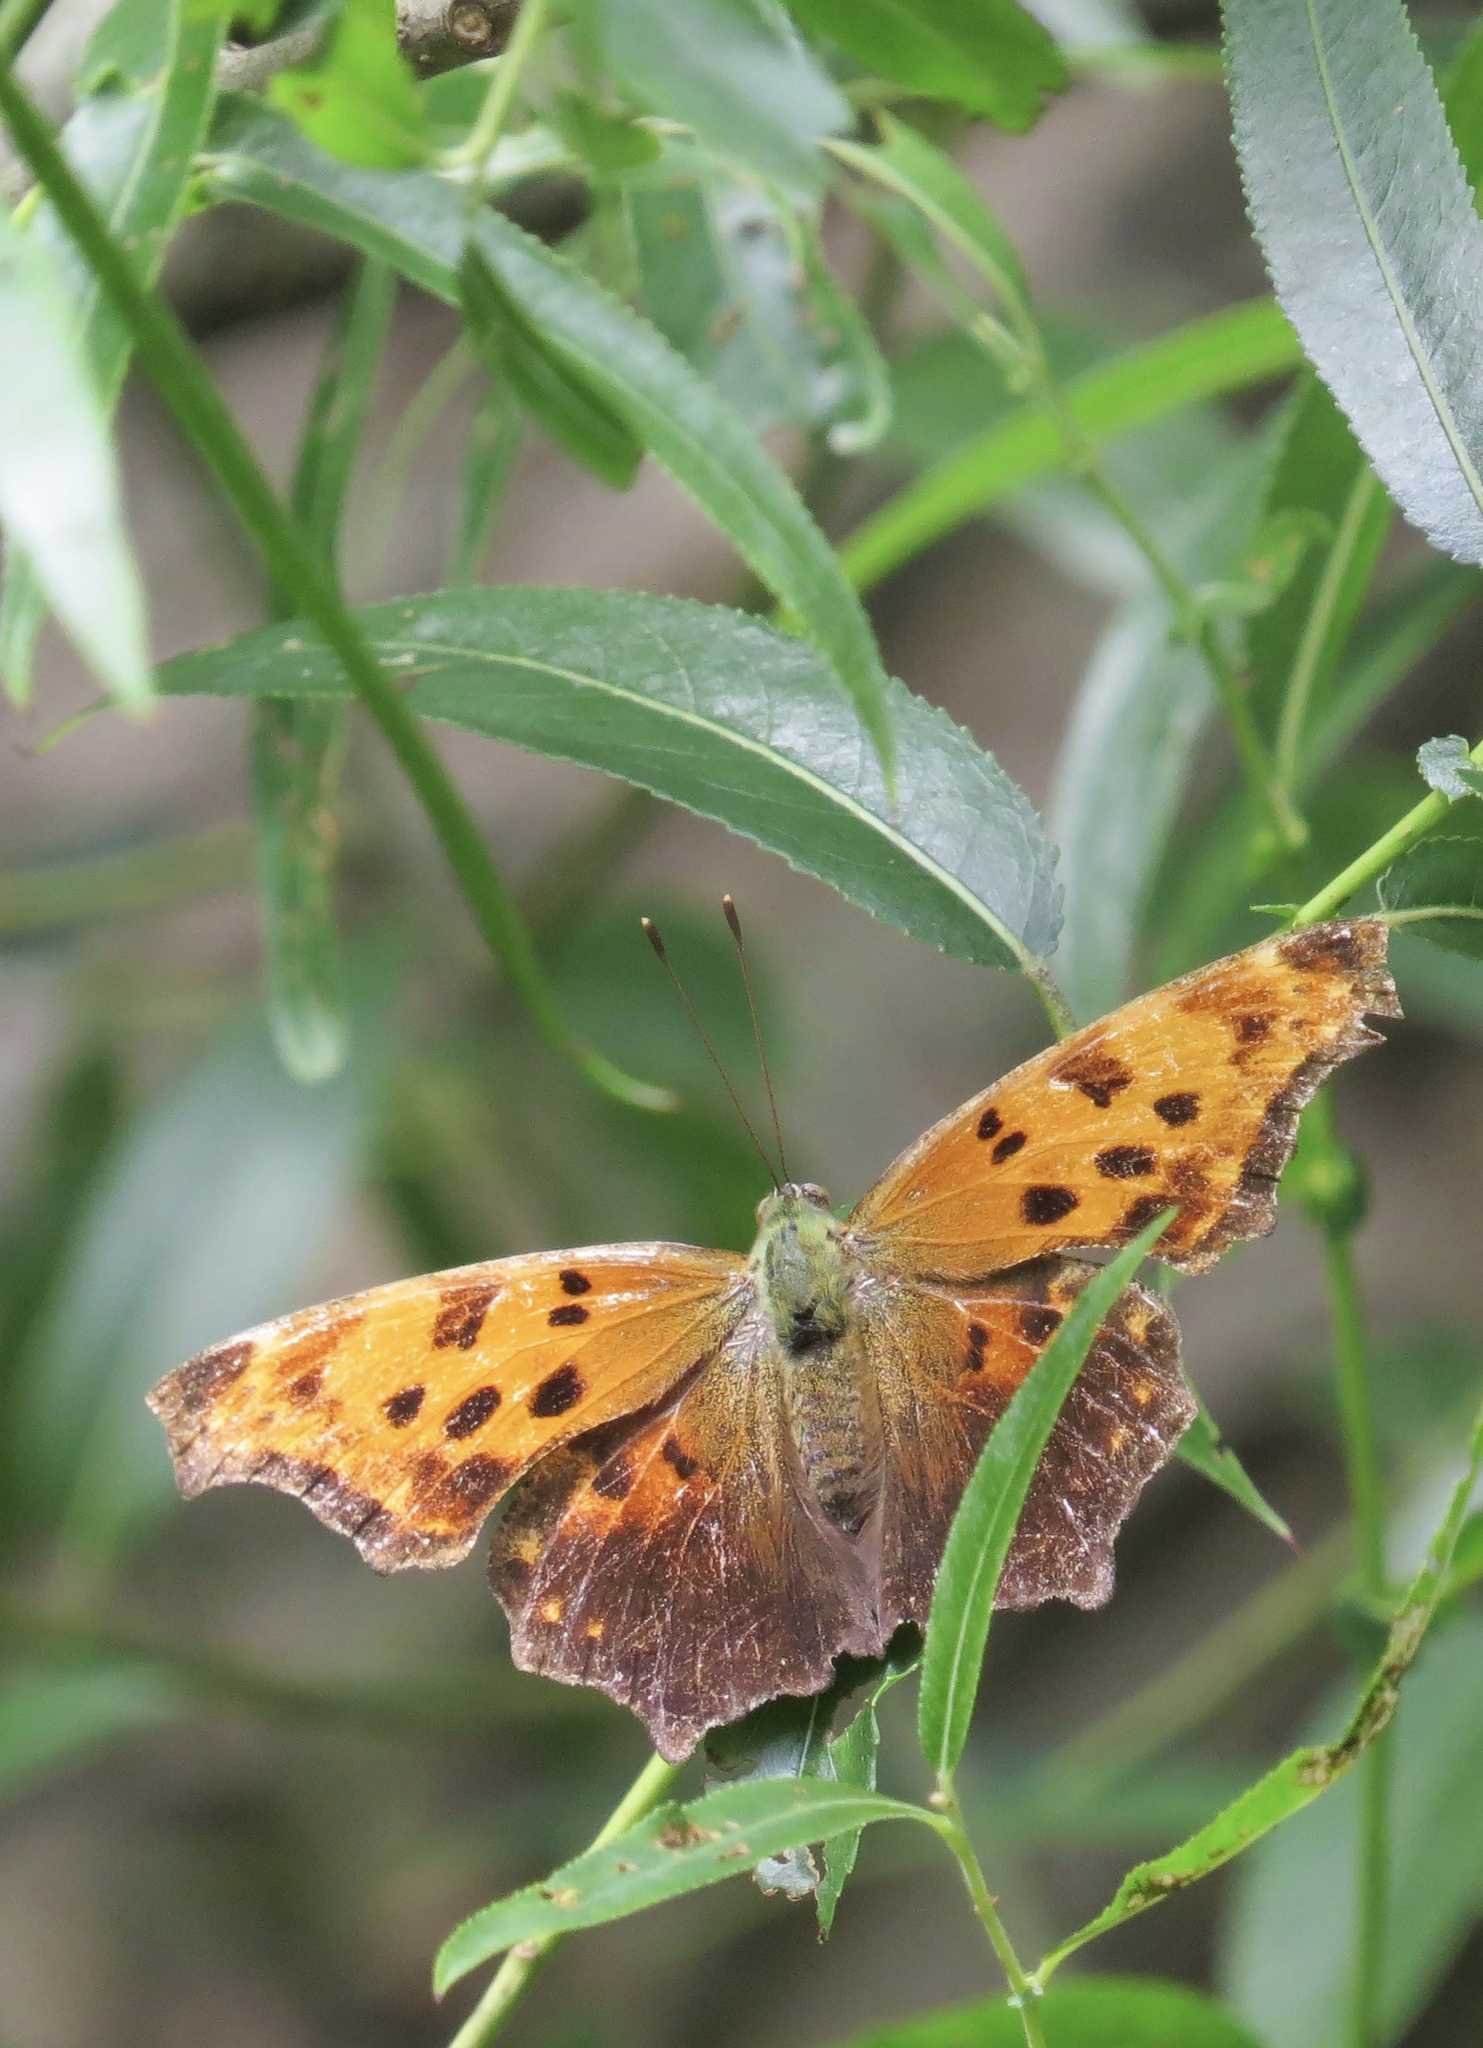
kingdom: Animalia
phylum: Arthropoda
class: Insecta
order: Lepidoptera
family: Nymphalidae
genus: Polygonia
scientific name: Polygonia comma
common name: Eastern comma
